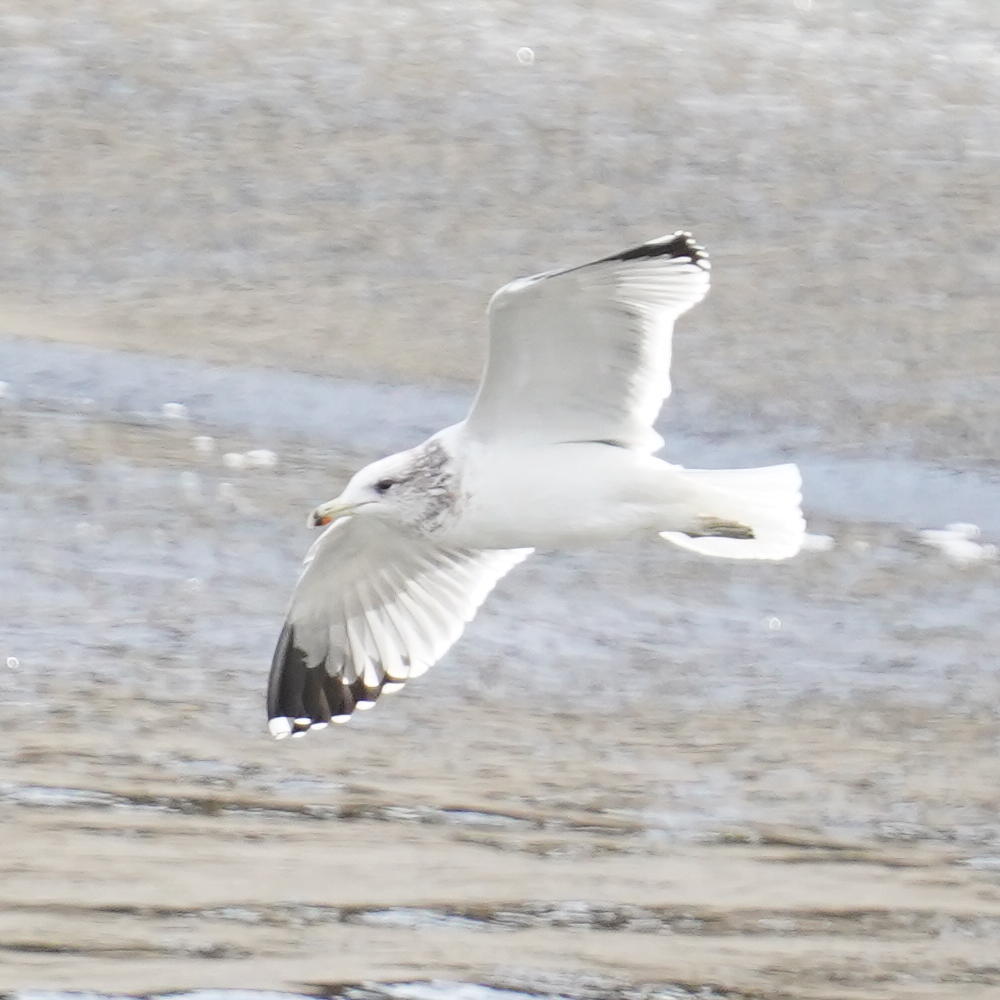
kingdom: Animalia
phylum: Chordata
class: Aves
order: Charadriiformes
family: Laridae
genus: Larus
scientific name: Larus californicus
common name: California gull
